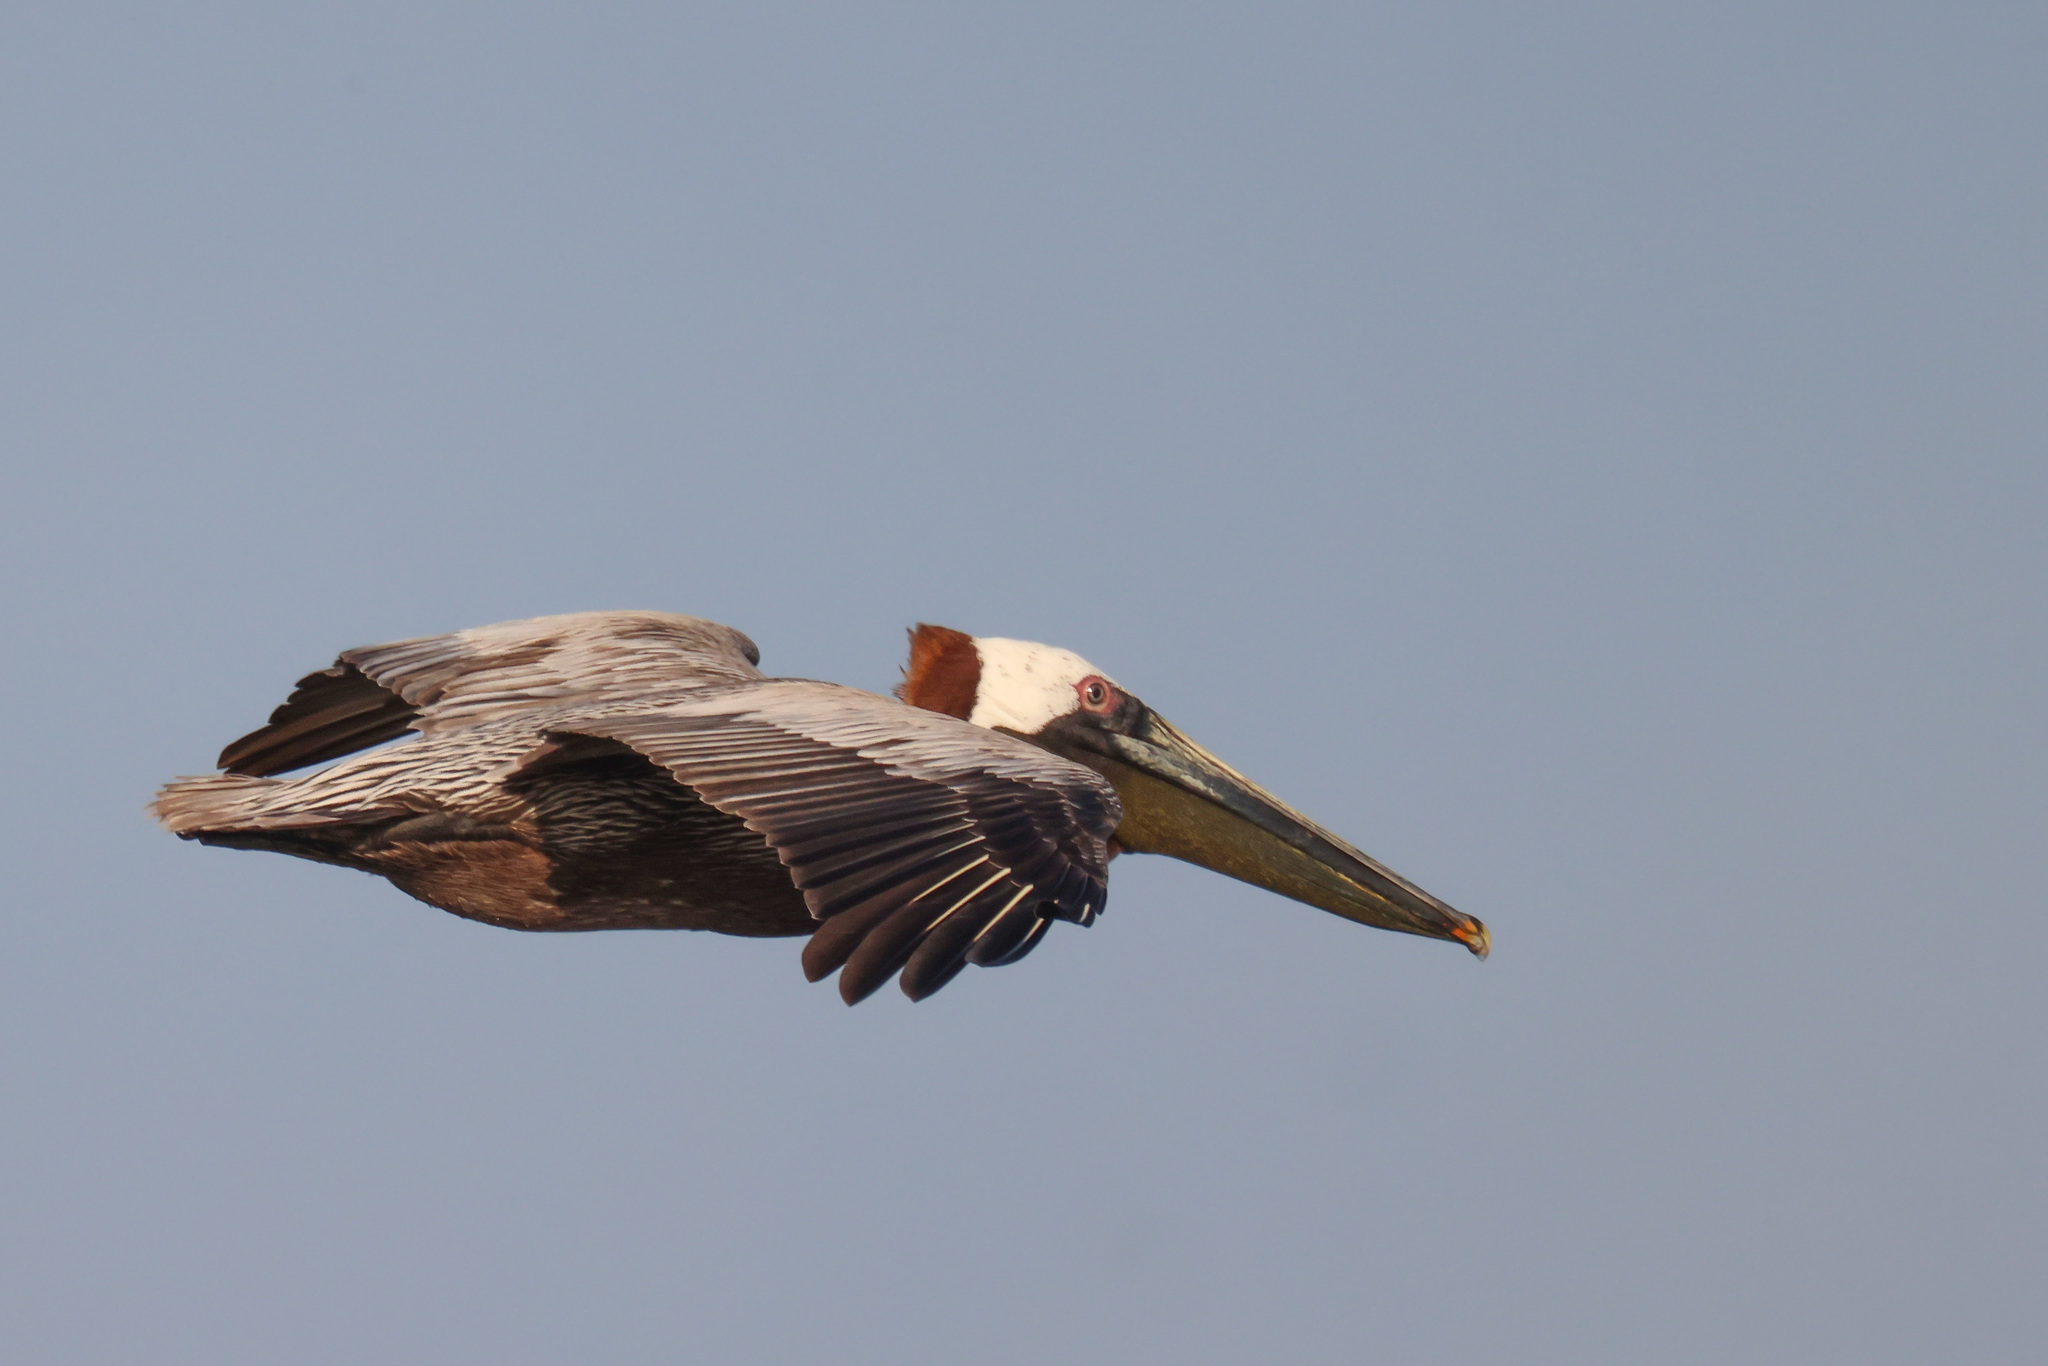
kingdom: Animalia
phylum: Chordata
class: Aves
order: Pelecaniformes
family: Pelecanidae
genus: Pelecanus
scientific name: Pelecanus occidentalis
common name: Brown pelican
